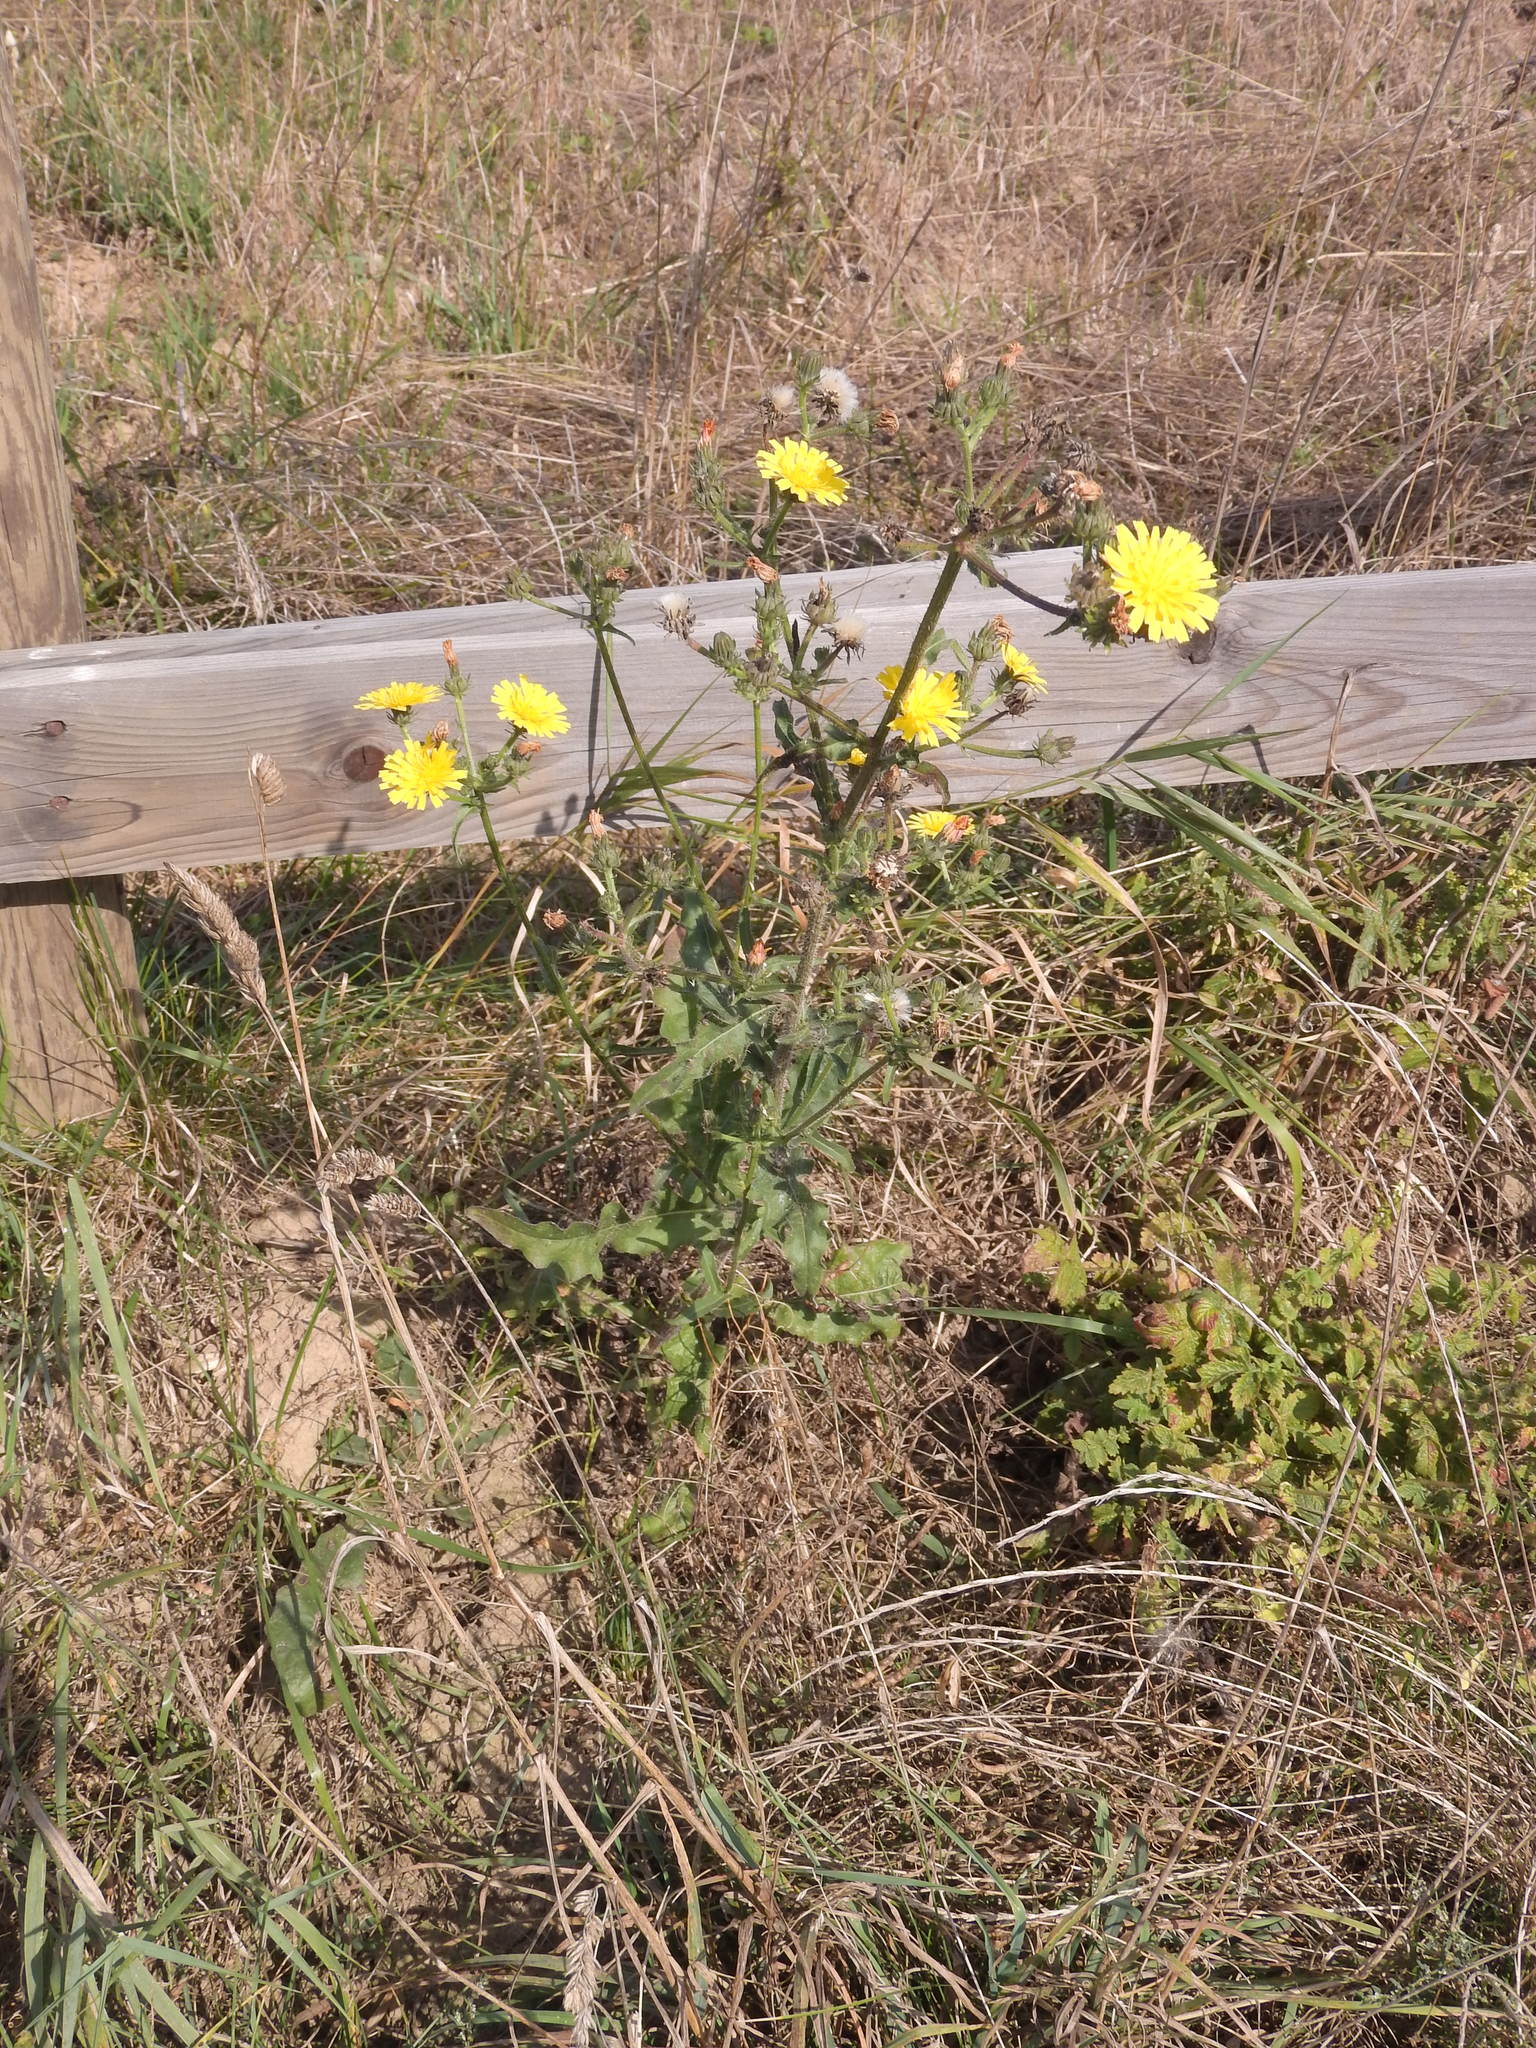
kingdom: Plantae
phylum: Tracheophyta
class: Magnoliopsida
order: Asterales
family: Asteraceae
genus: Picris
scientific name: Picris hieracioides
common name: Hawkweed oxtongue
